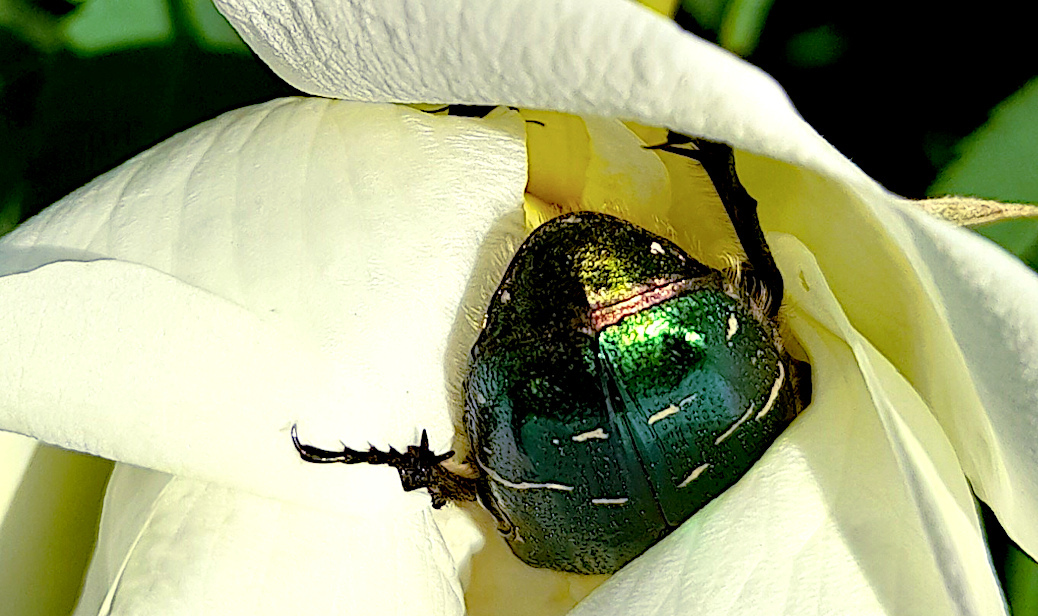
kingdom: Animalia
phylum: Arthropoda
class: Insecta
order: Coleoptera
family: Scarabaeidae
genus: Cetonia
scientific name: Cetonia aurata
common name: Rose chafer
